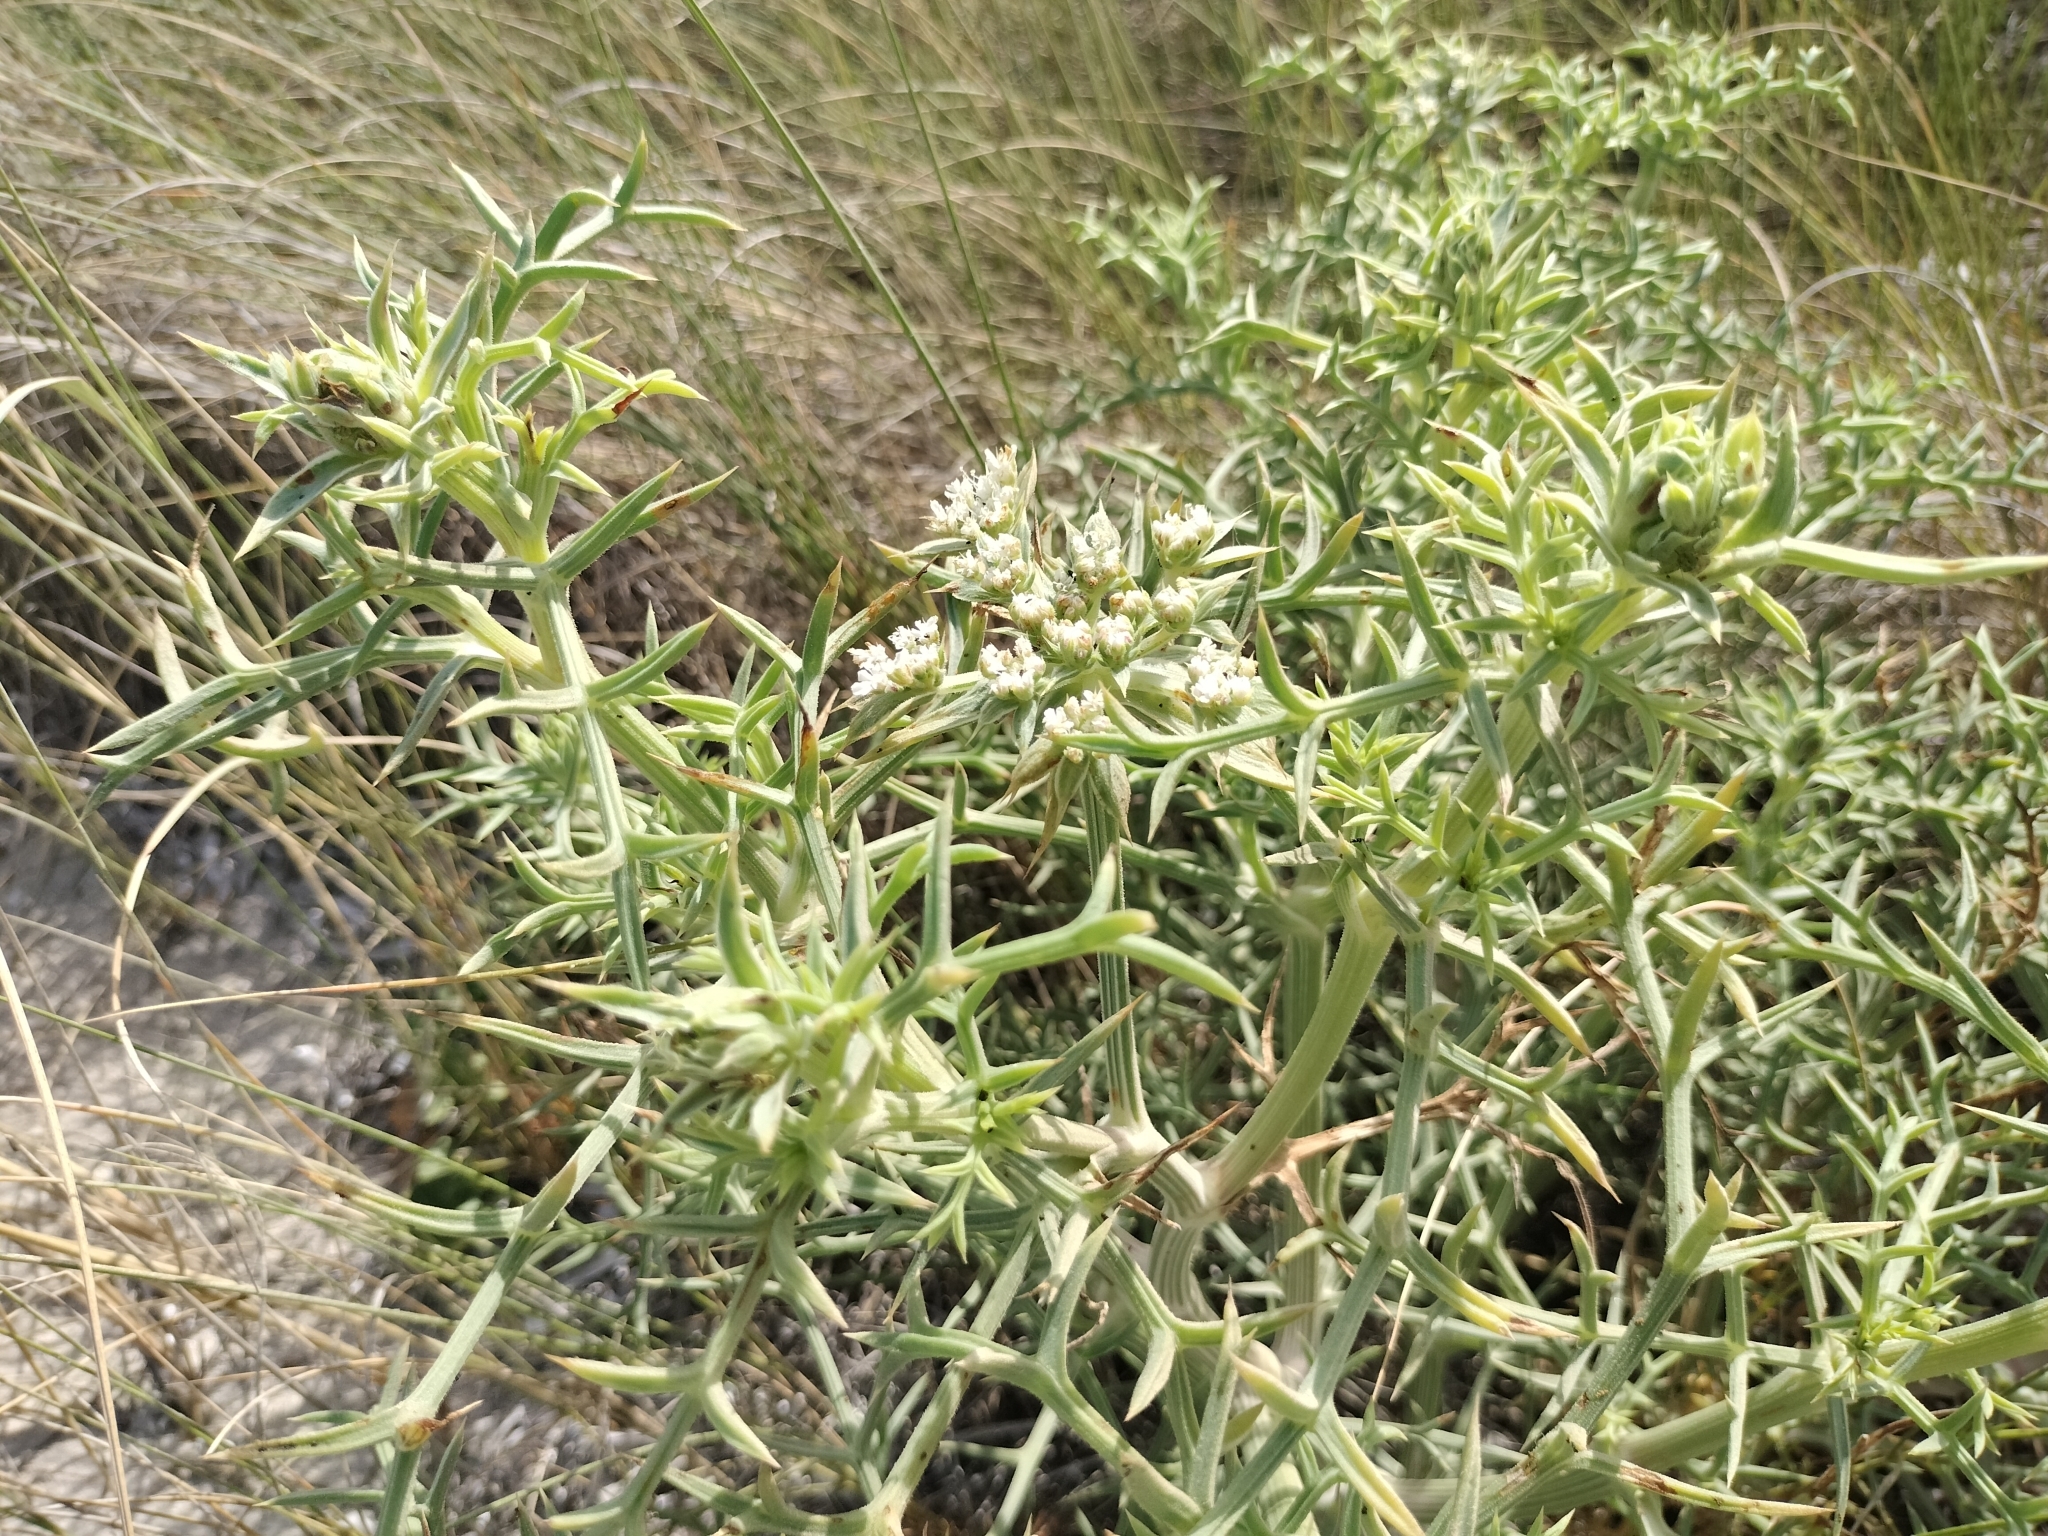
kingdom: Plantae
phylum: Tracheophyta
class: Magnoliopsida
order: Apiales
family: Apiaceae
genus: Echinophora
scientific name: Echinophora spinosa
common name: Prickly samphire
